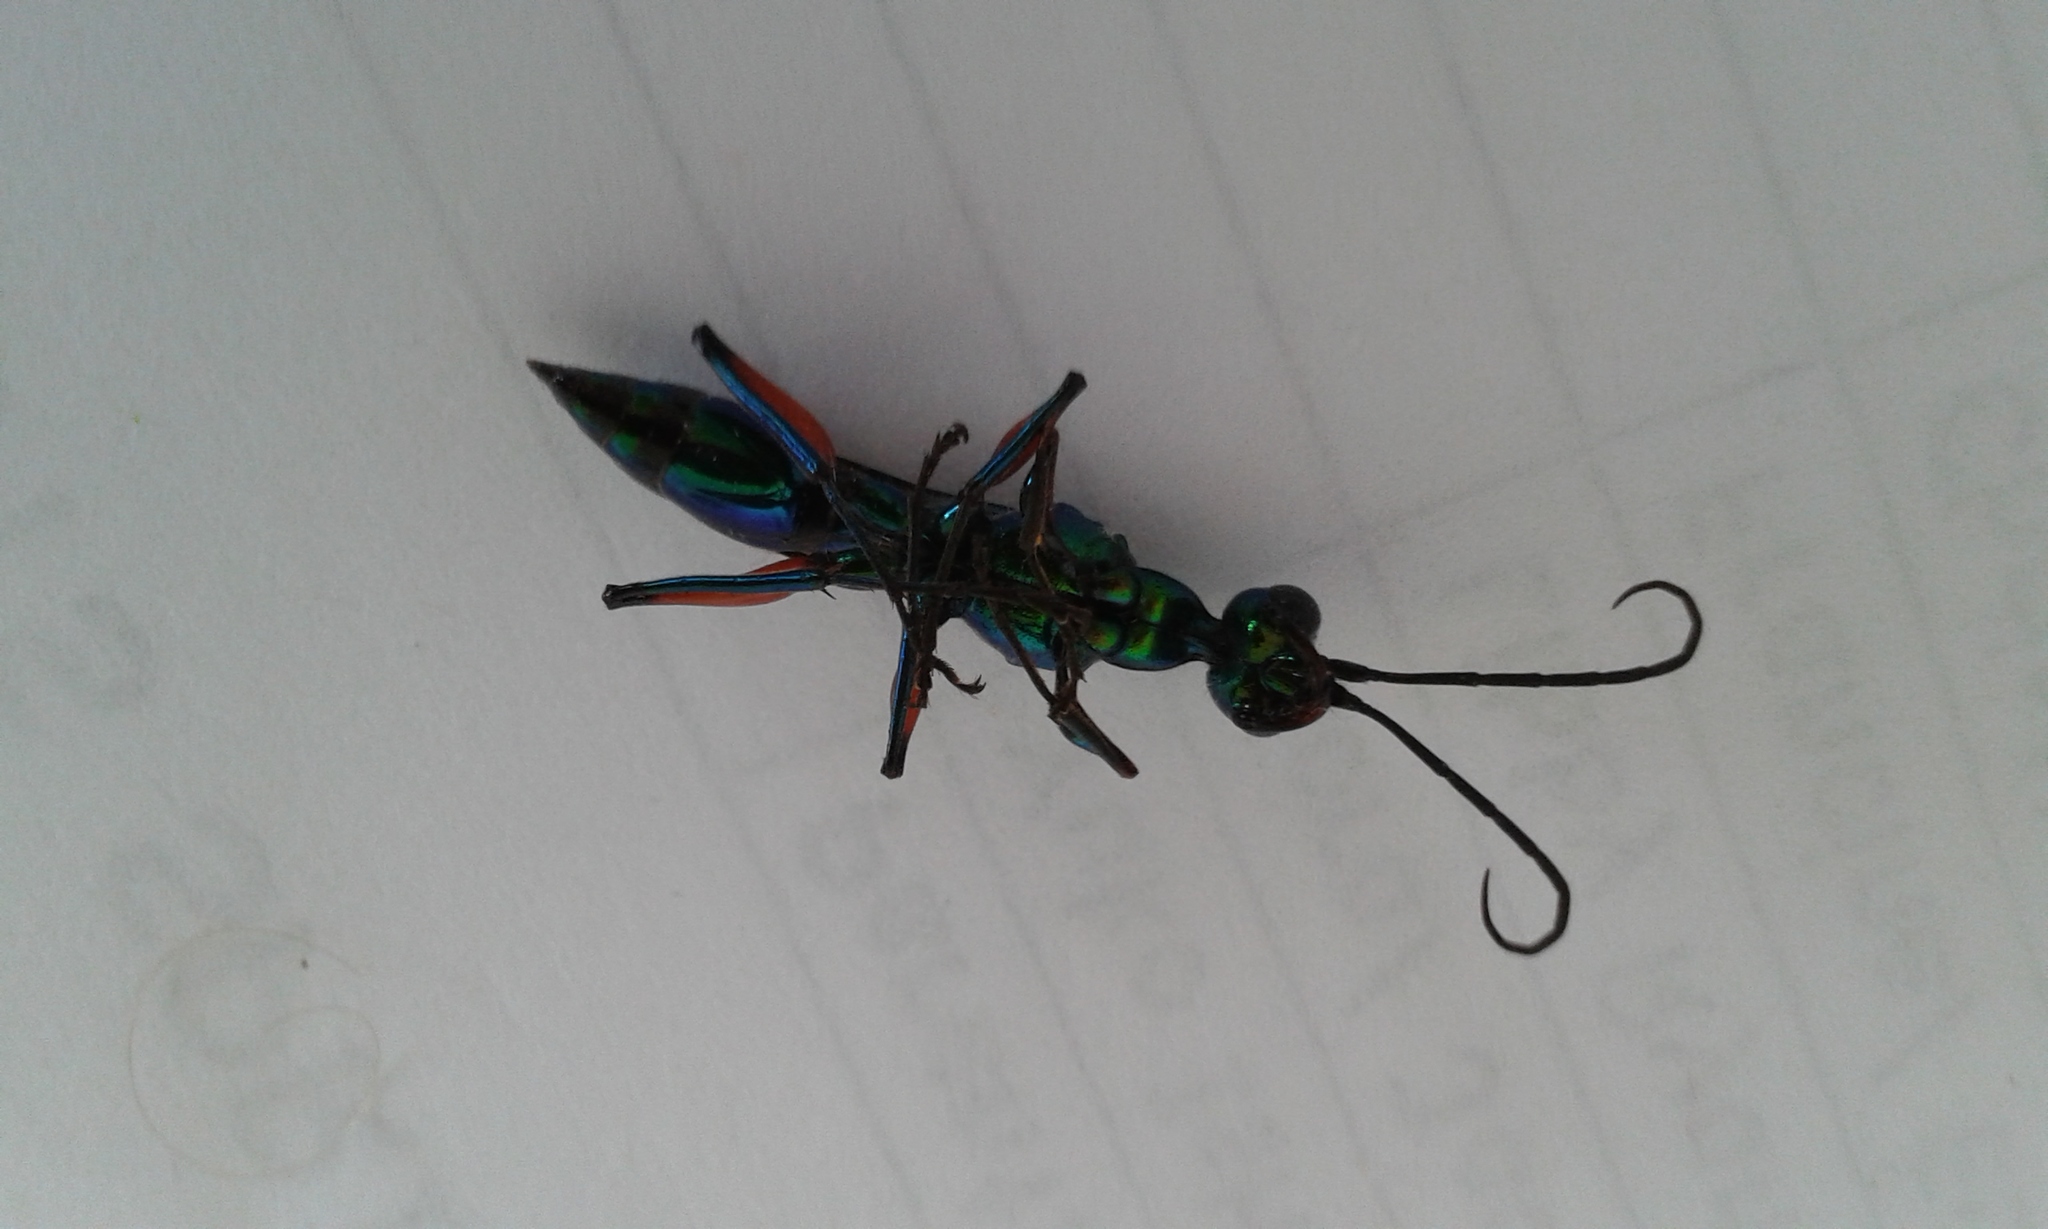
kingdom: Animalia
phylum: Arthropoda
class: Insecta
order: Hymenoptera
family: Ampulicidae
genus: Ampulex
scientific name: Ampulex compressa
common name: Emerald cockroach wasp
